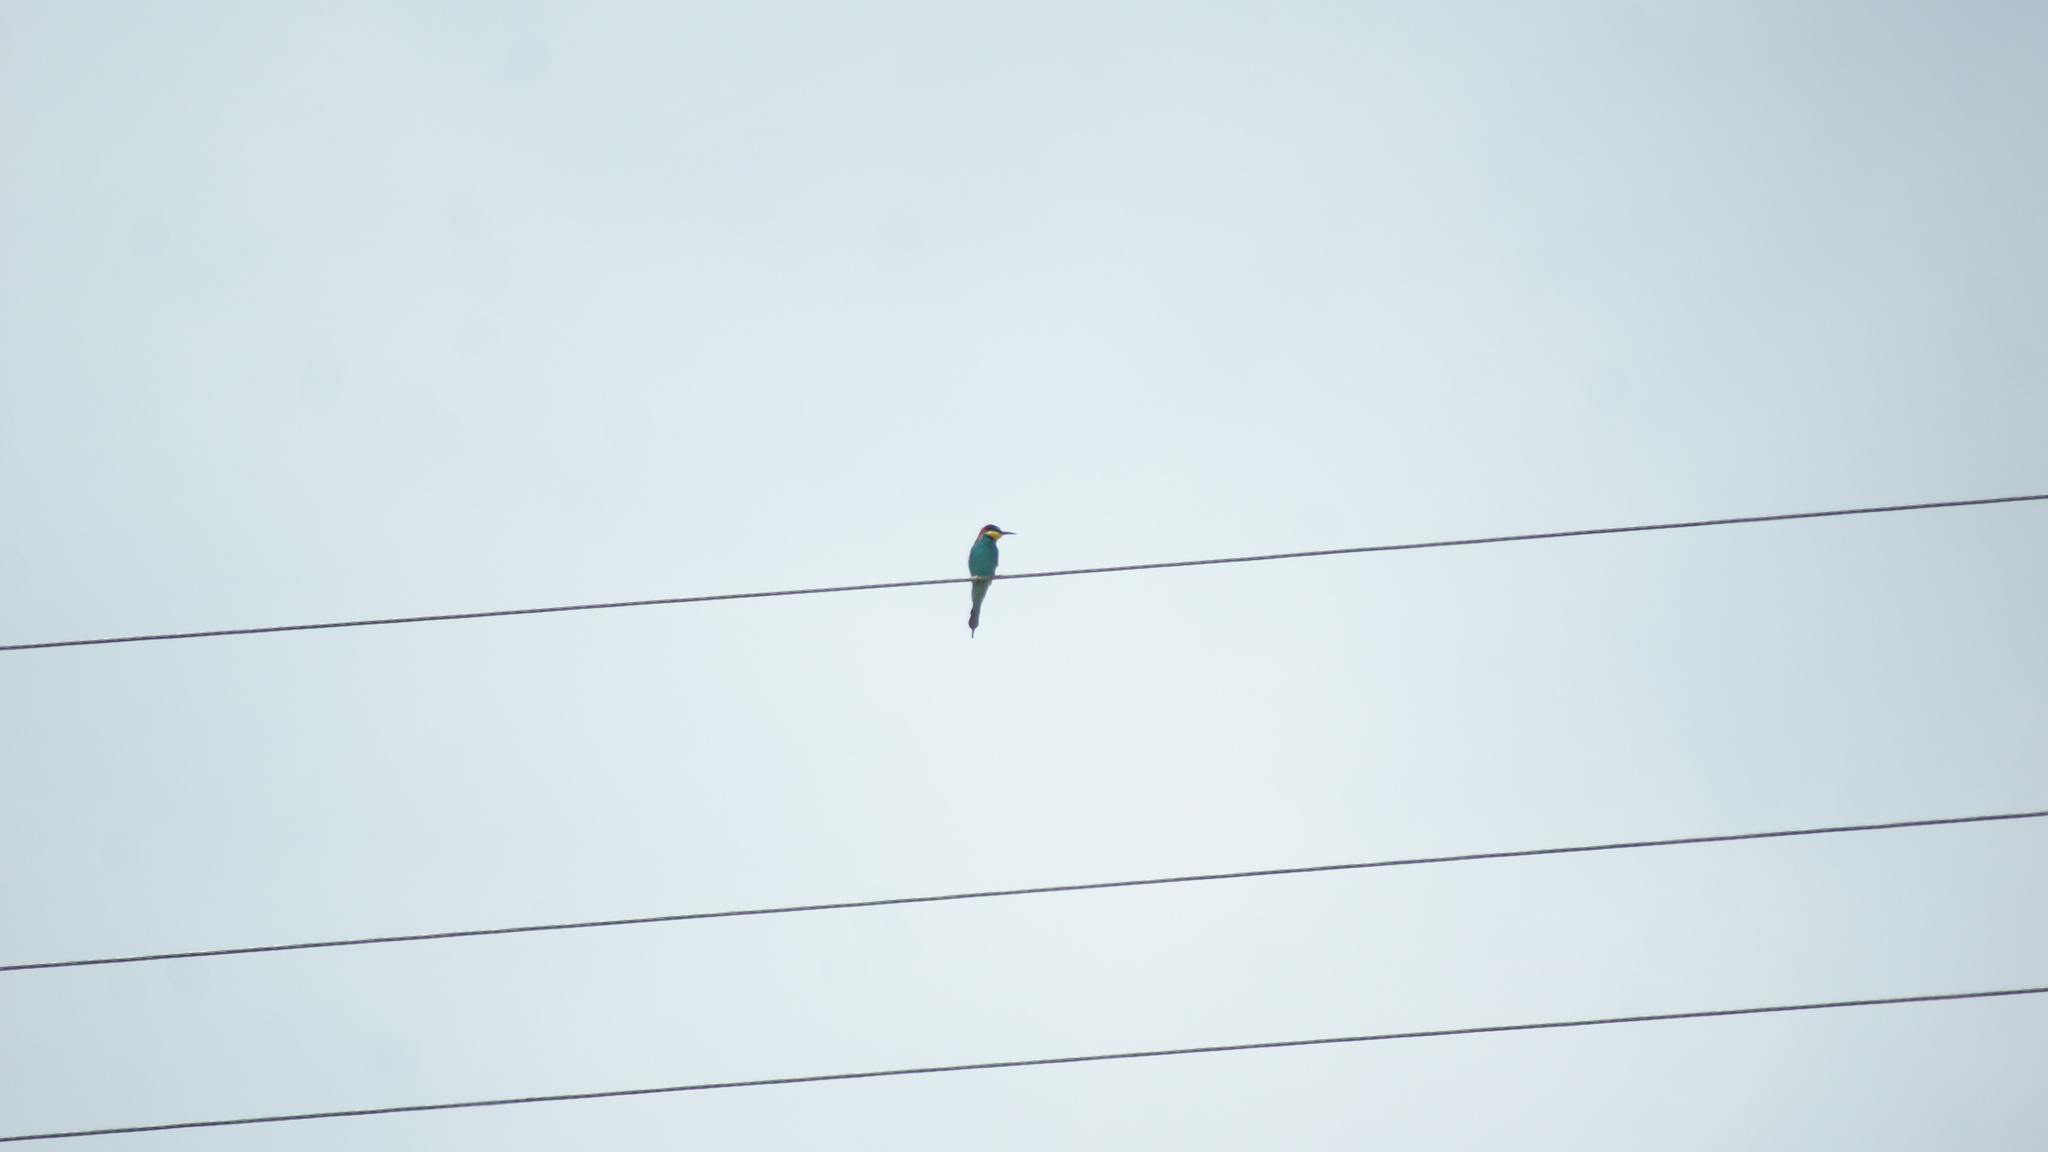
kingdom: Animalia
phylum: Chordata
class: Aves
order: Coraciiformes
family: Meropidae
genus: Merops
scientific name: Merops apiaster
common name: European bee-eater
